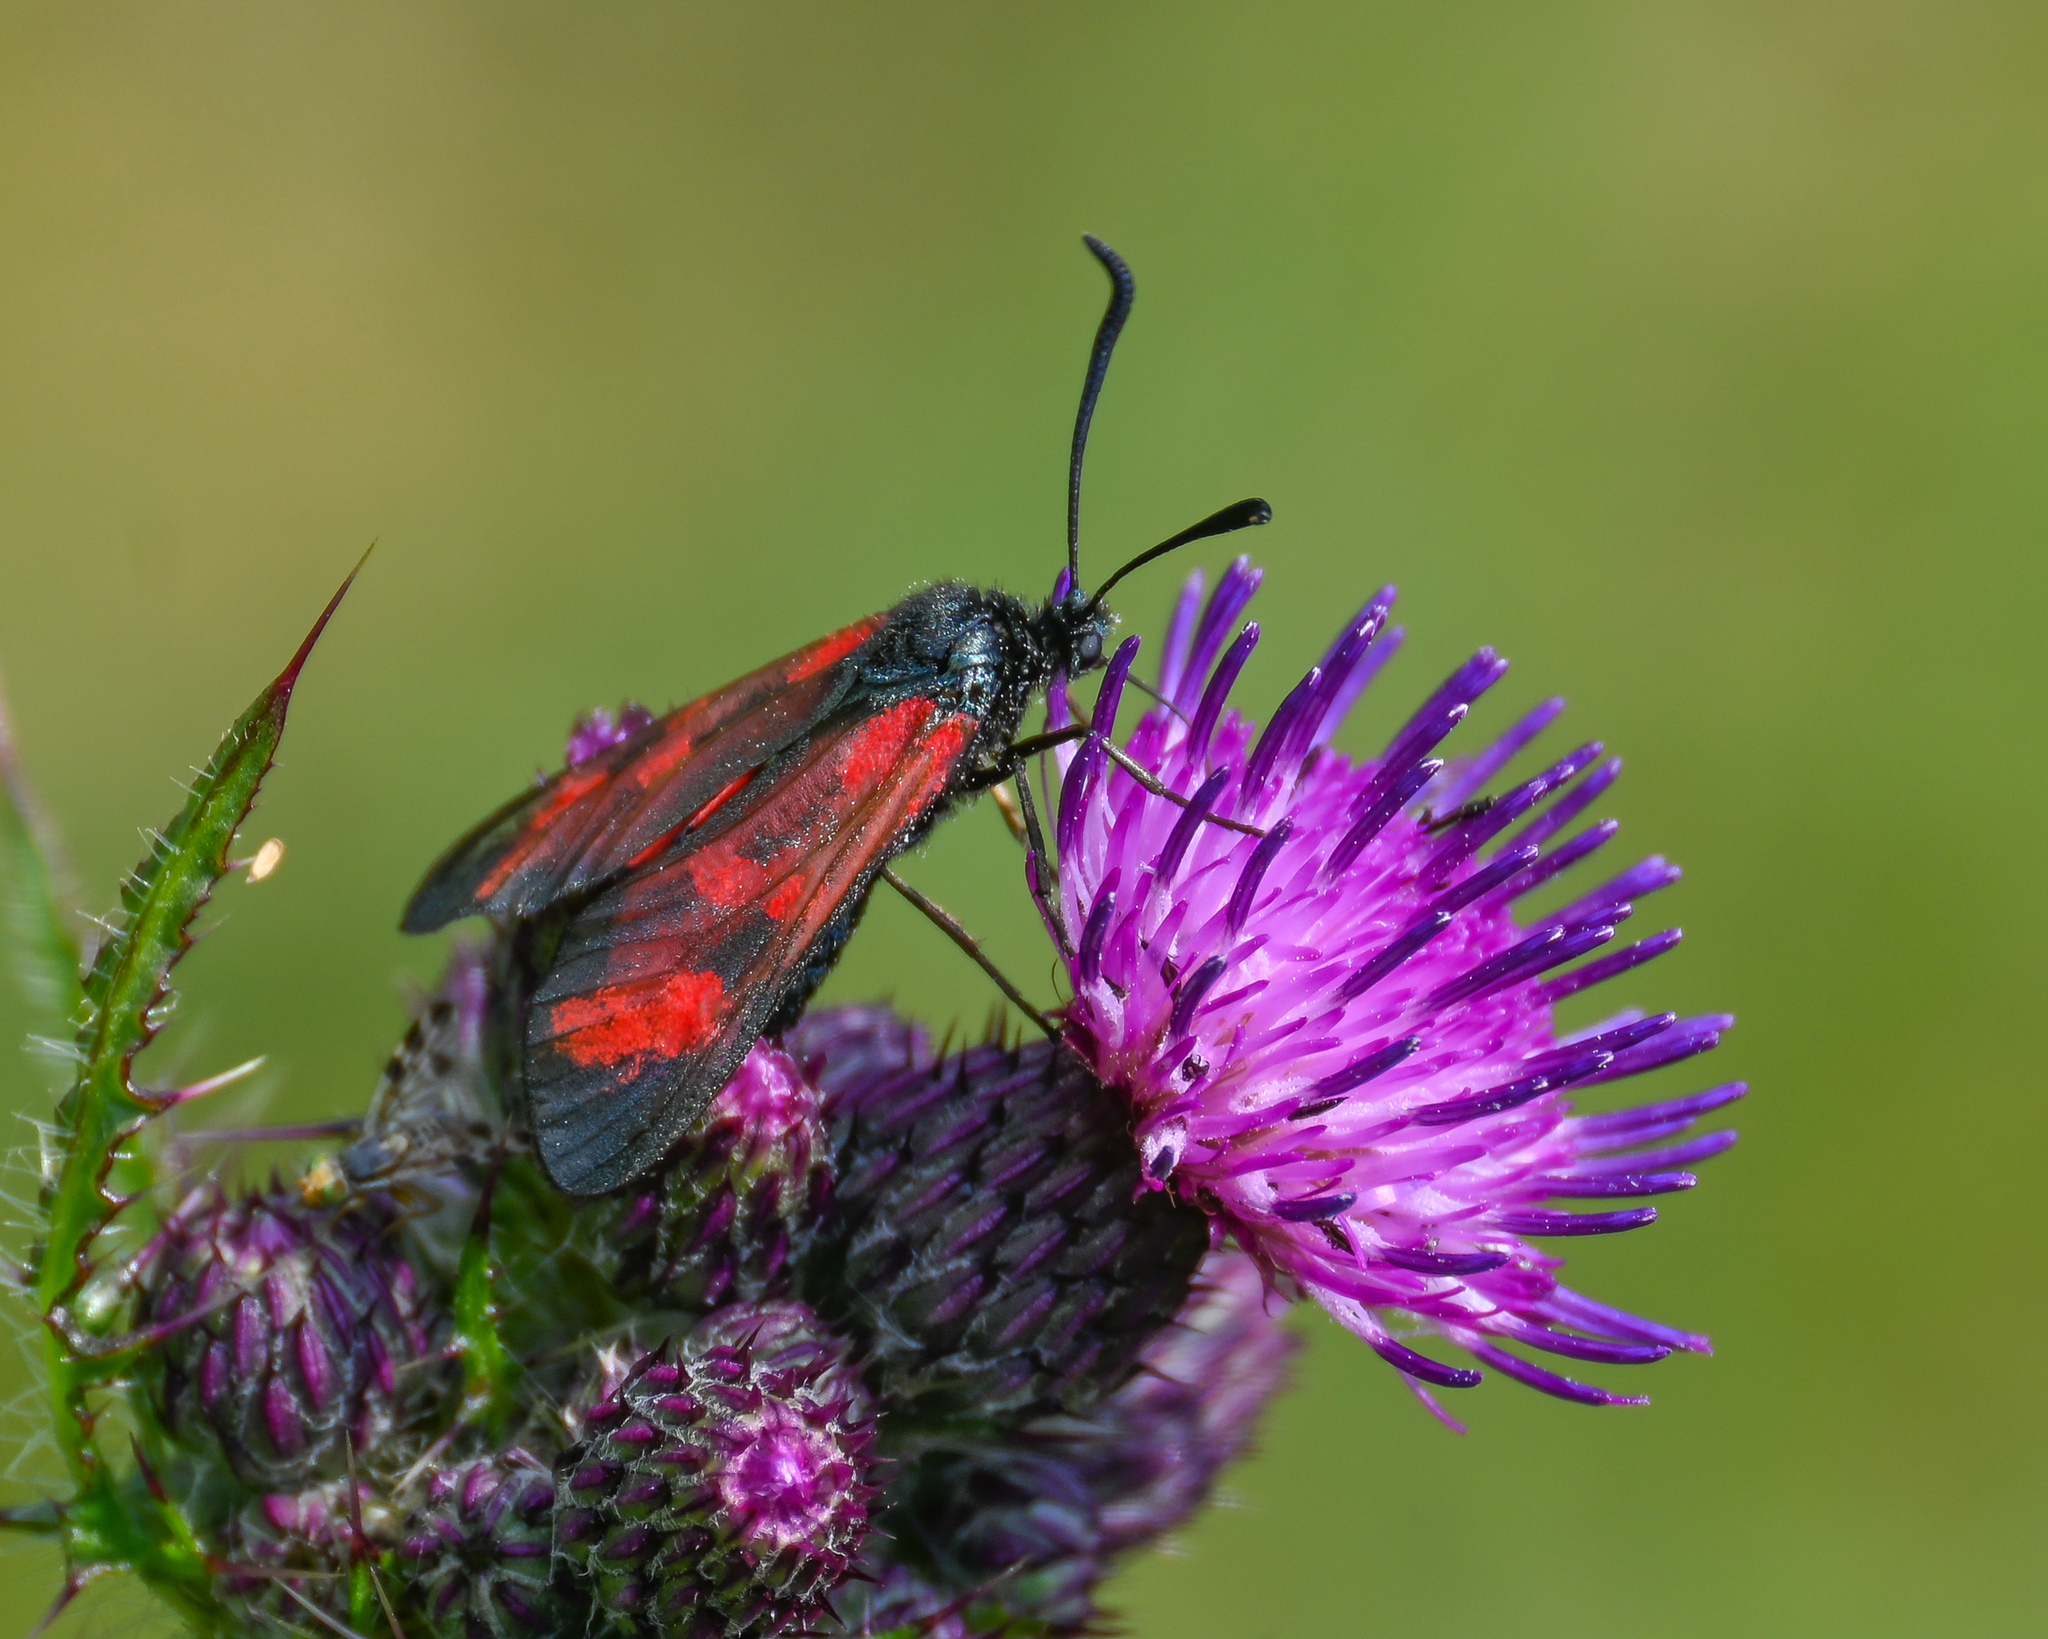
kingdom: Animalia
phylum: Arthropoda
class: Insecta
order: Lepidoptera
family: Zygaenidae
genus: Zygaena
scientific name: Zygaena filipendulae
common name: Six-spot burnet
